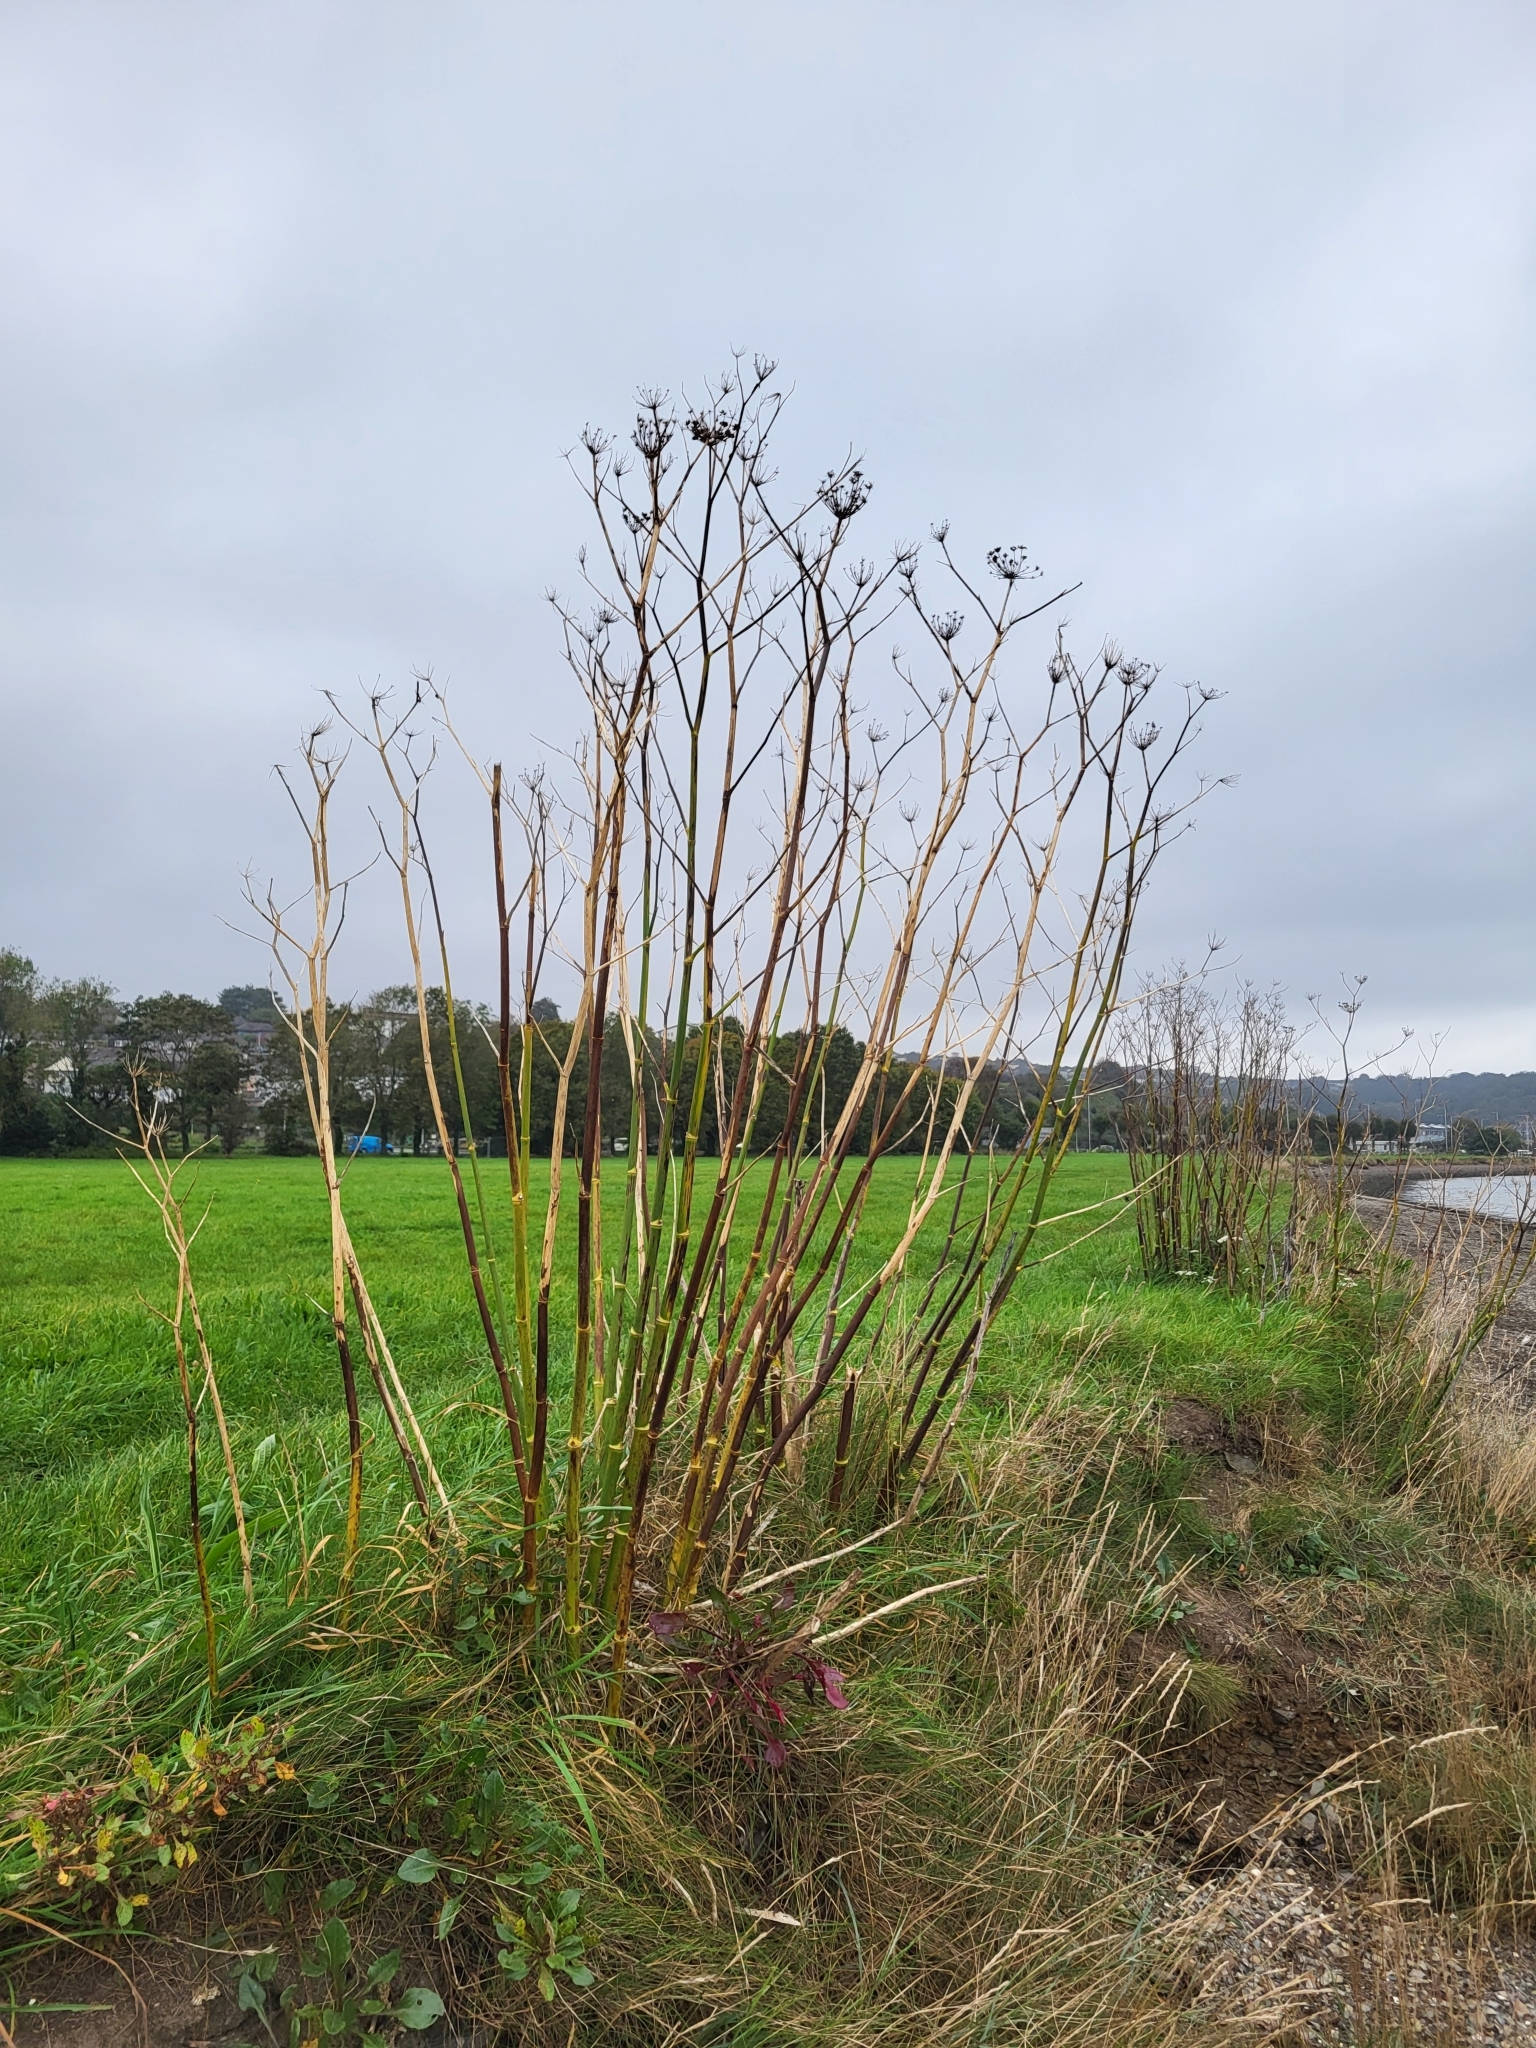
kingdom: Plantae
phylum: Tracheophyta
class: Magnoliopsida
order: Apiales
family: Apiaceae
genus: Foeniculum
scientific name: Foeniculum vulgare
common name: Fennel
